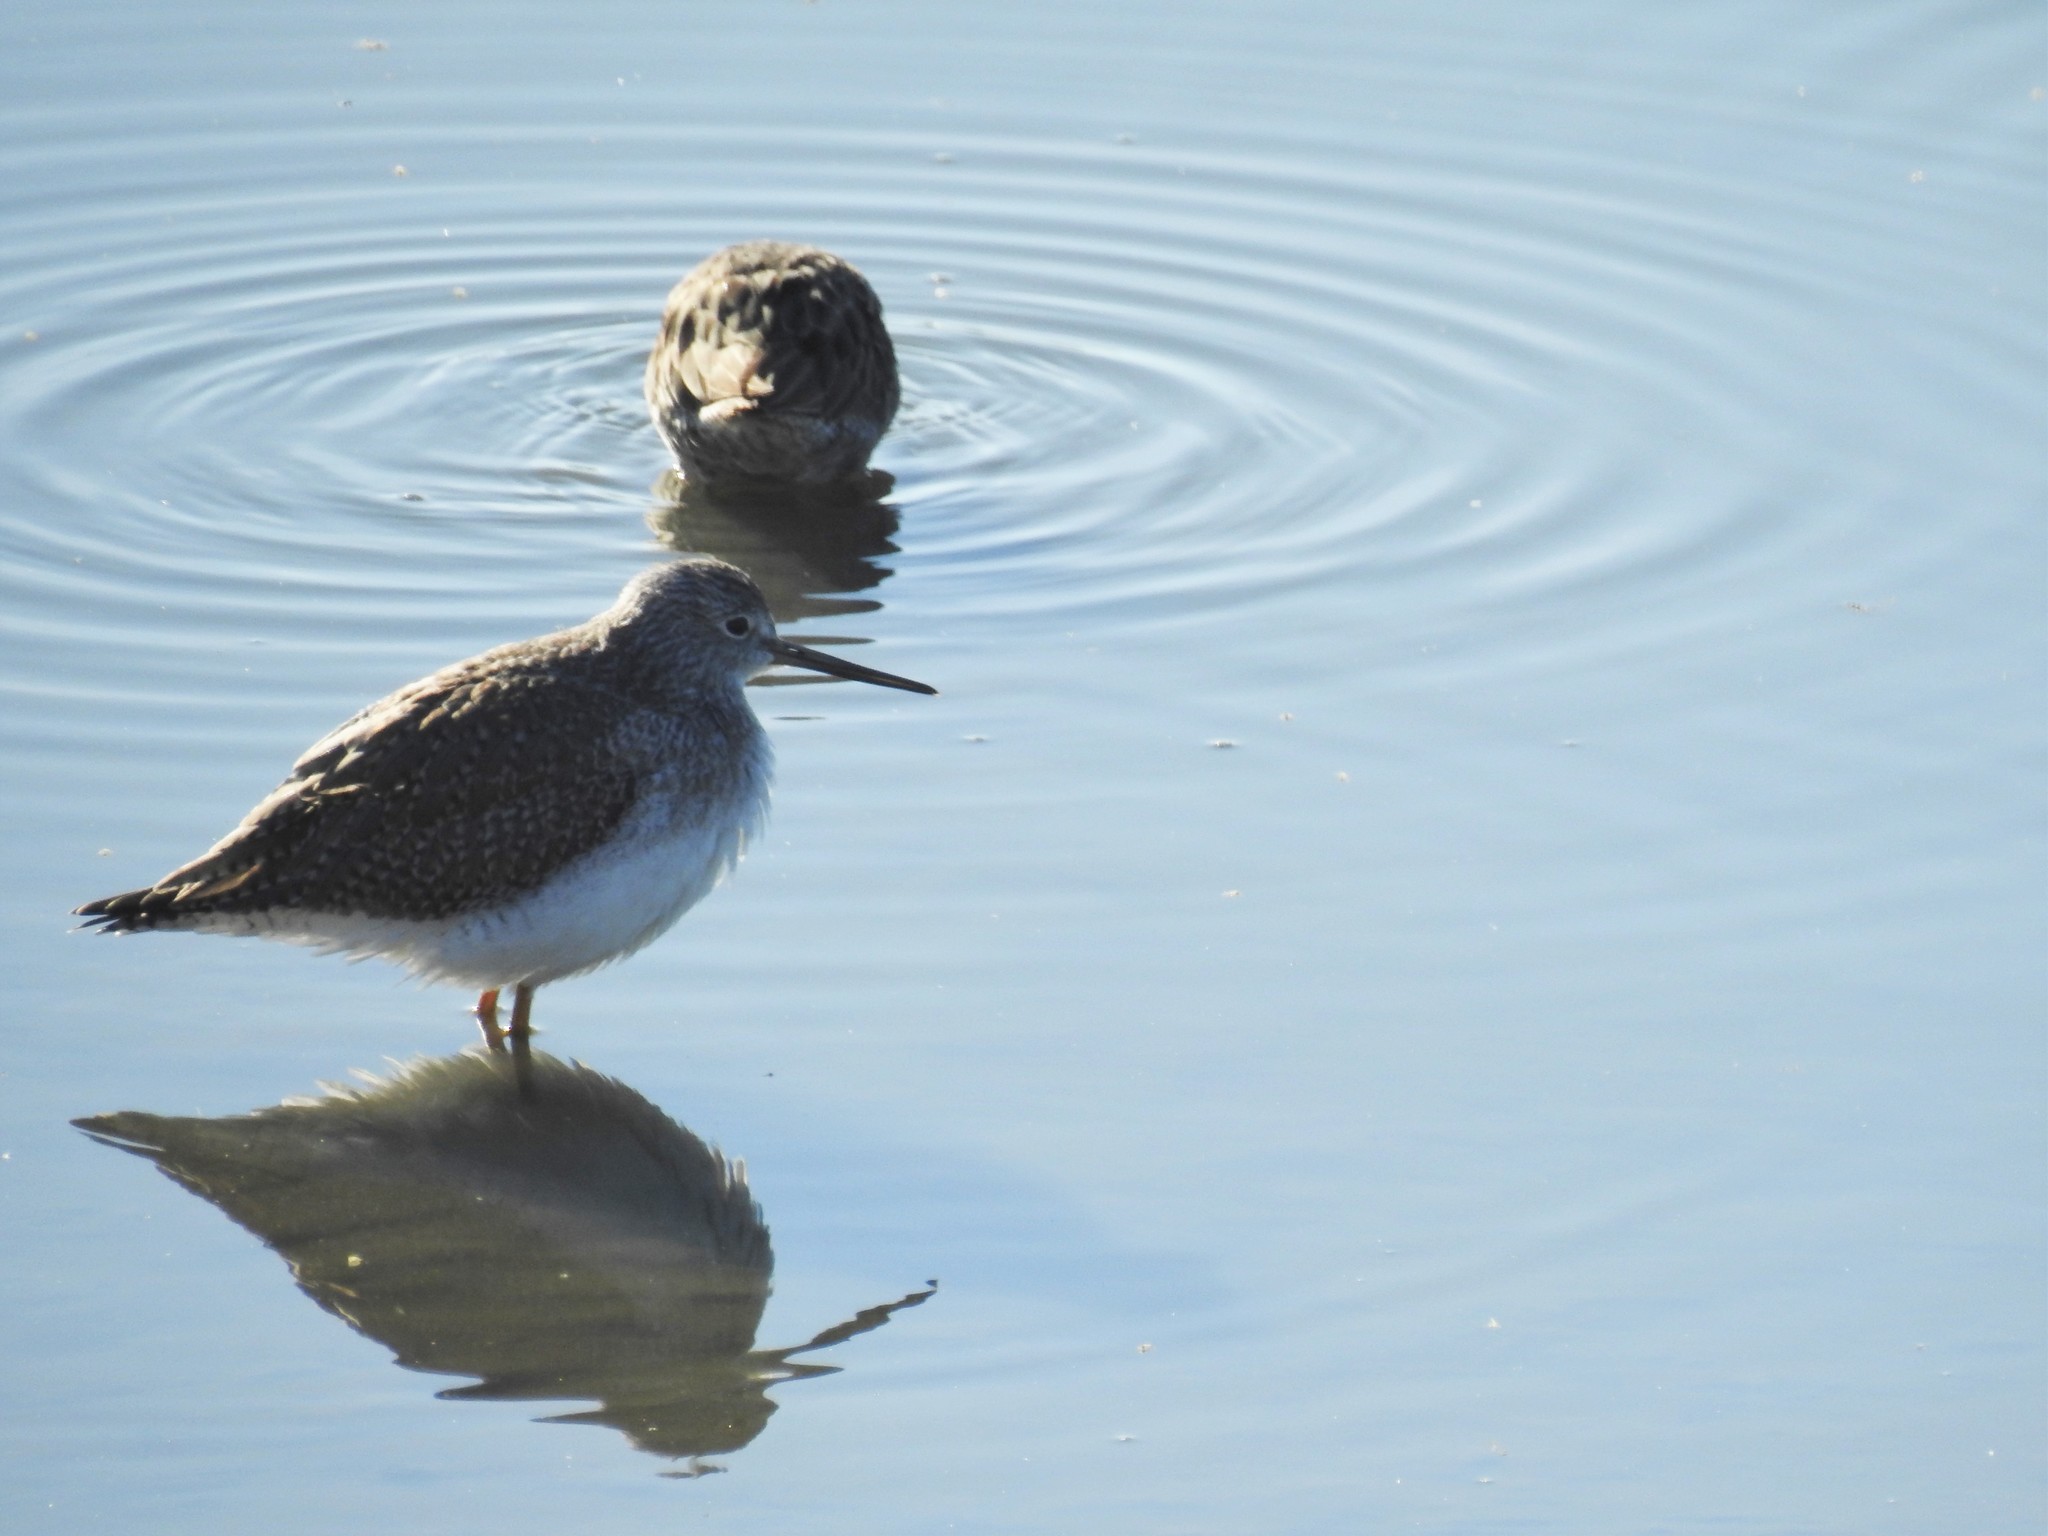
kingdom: Animalia
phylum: Chordata
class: Aves
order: Charadriiformes
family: Scolopacidae
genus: Tringa
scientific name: Tringa melanoleuca
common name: Greater yellowlegs
